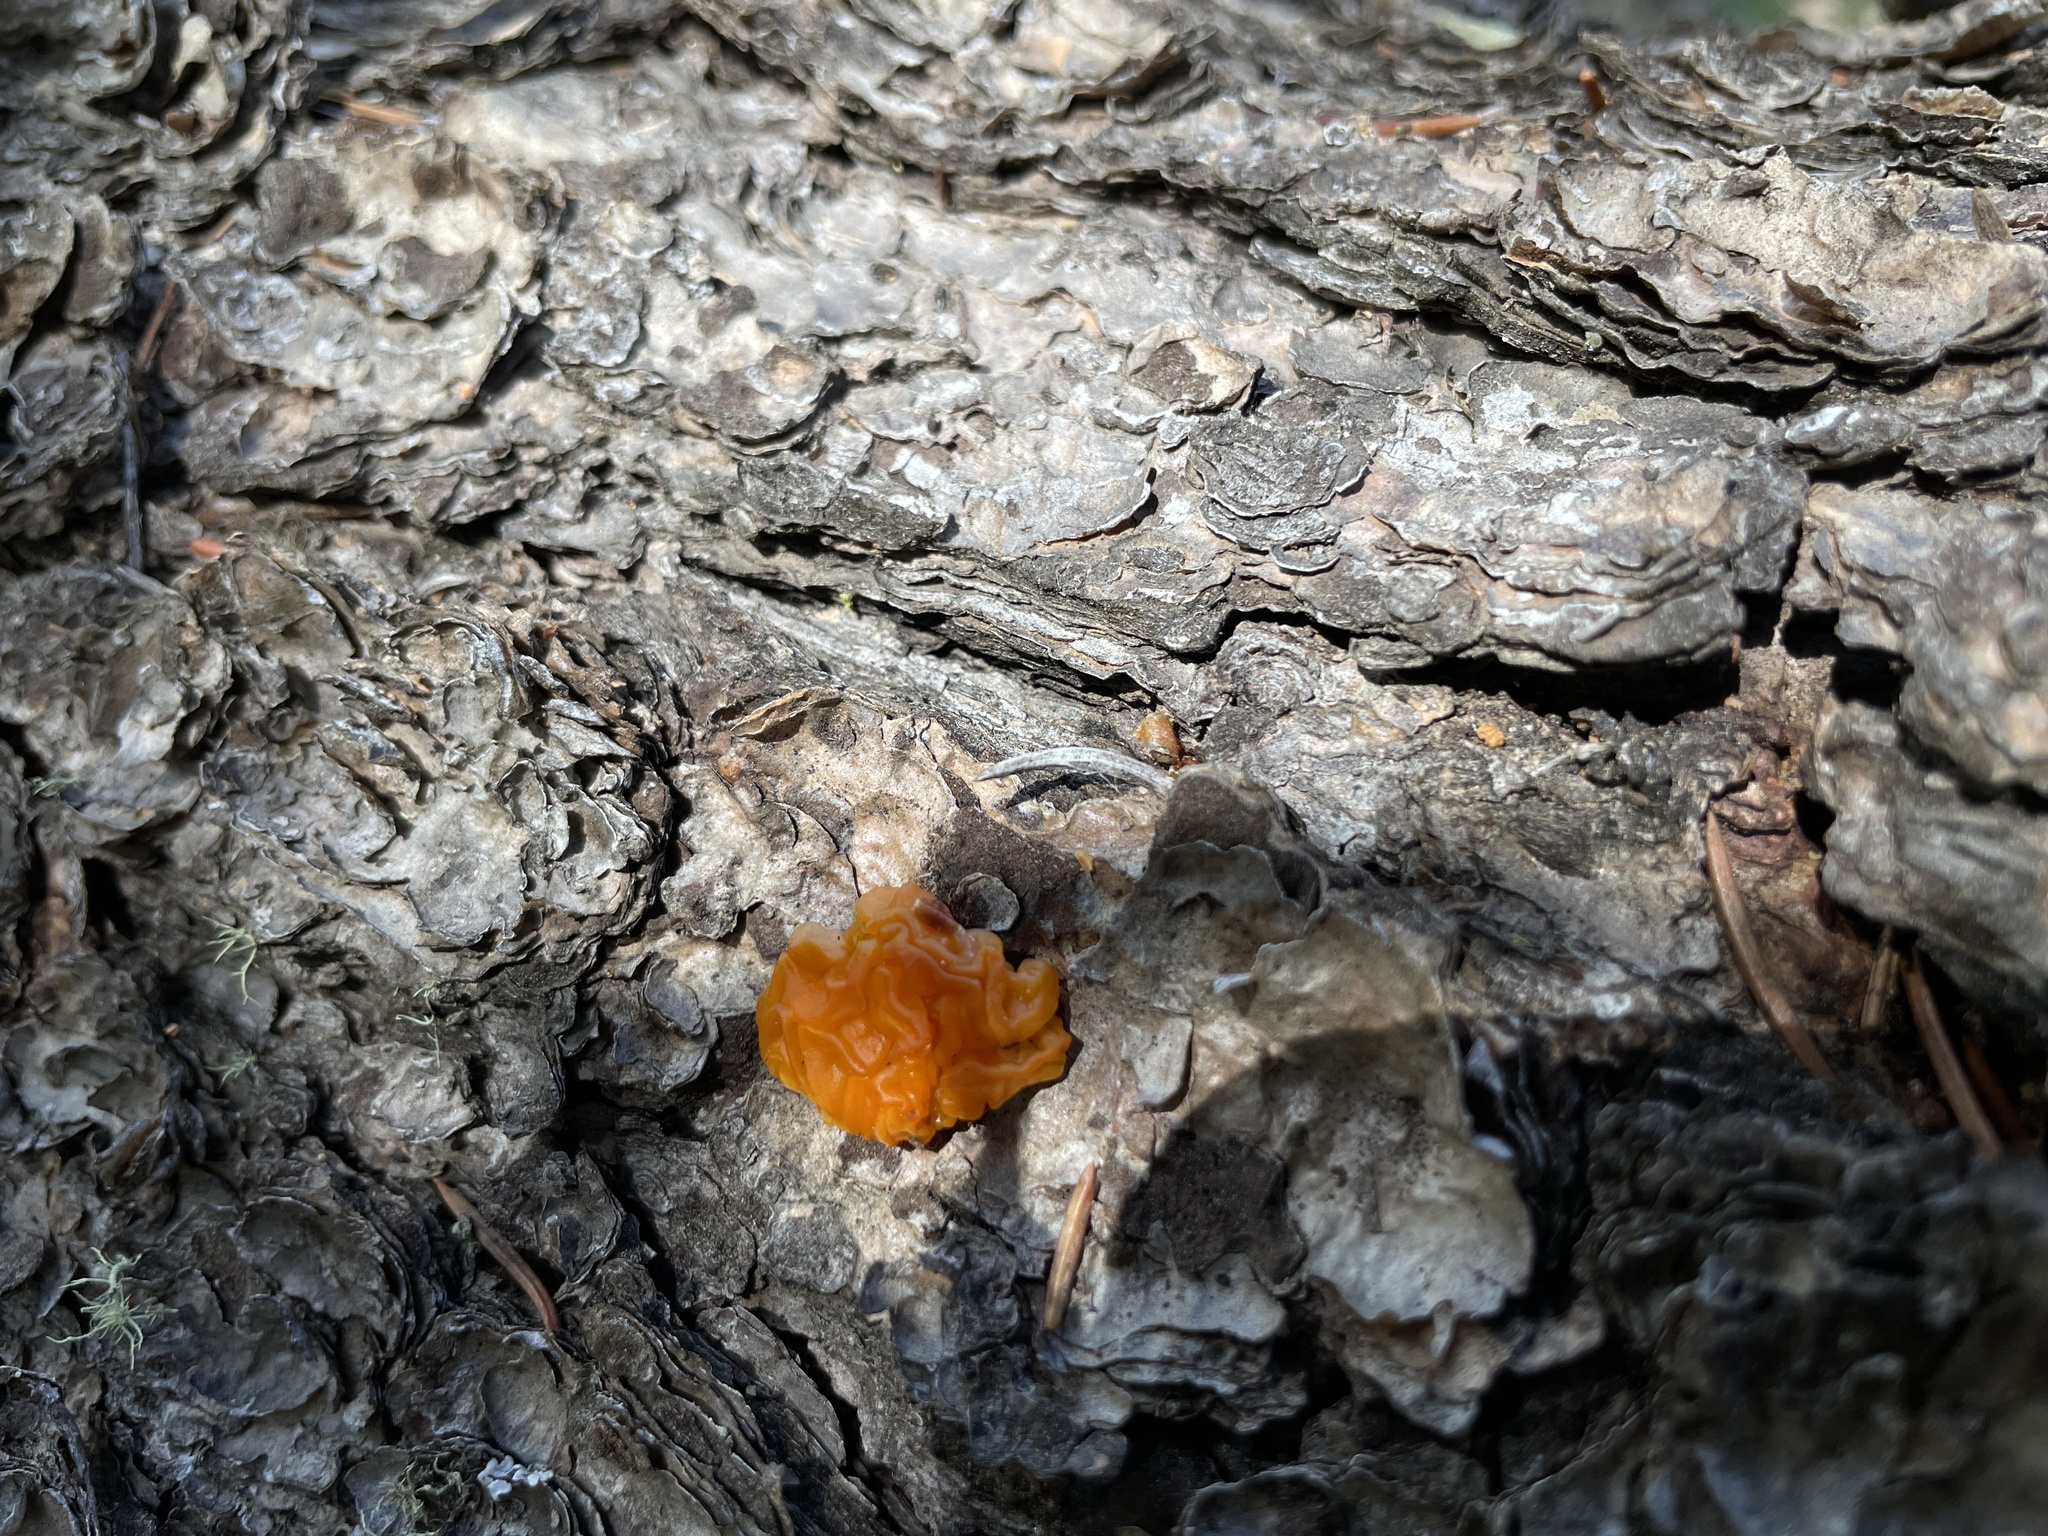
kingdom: Fungi
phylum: Basidiomycota
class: Dacrymycetes
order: Dacrymycetales
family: Dacrymycetaceae
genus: Dacrymyces
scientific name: Dacrymyces dictyosporus
